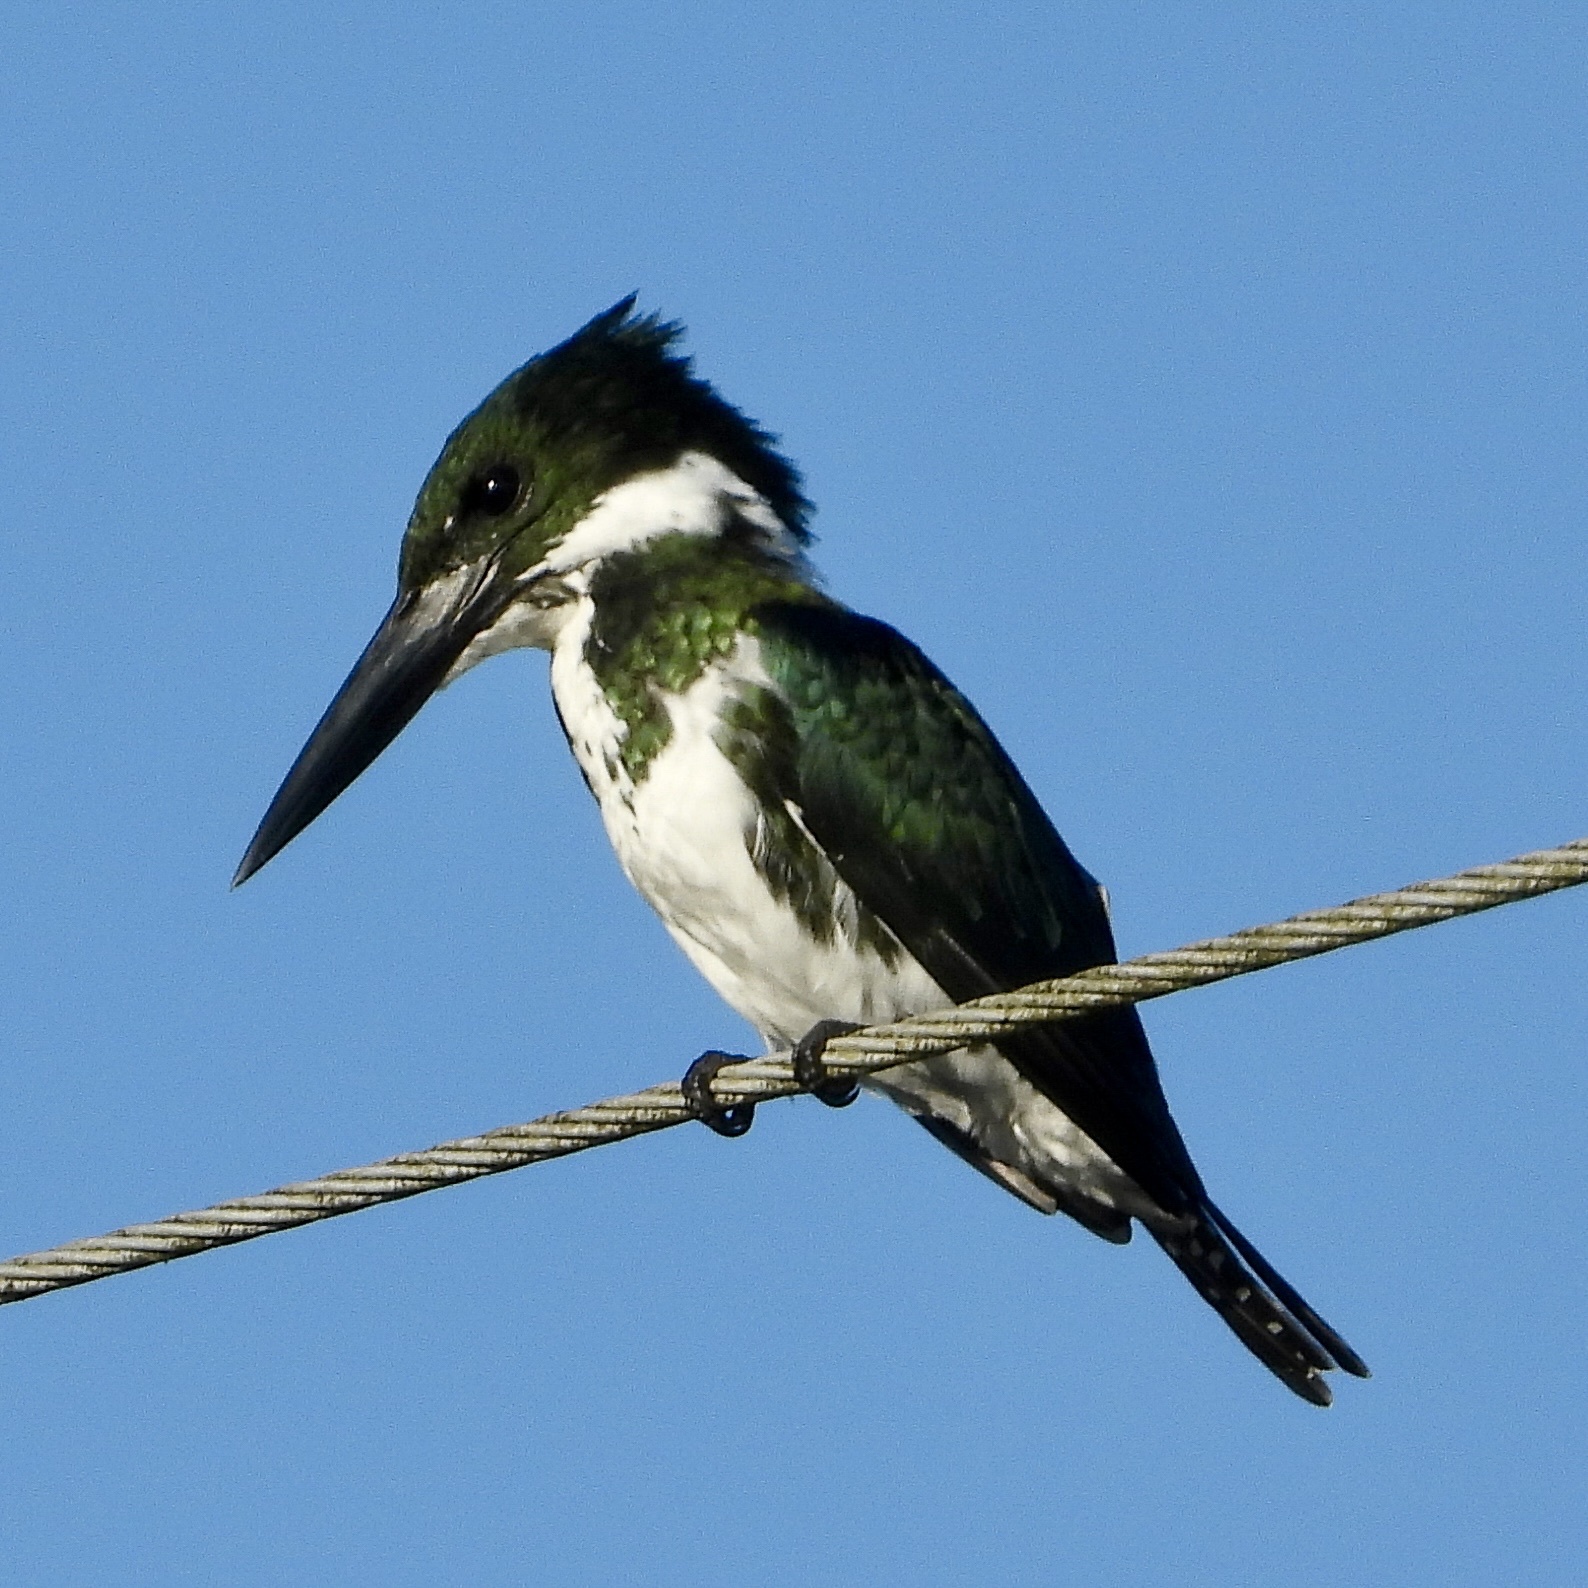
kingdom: Animalia
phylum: Chordata
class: Aves
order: Coraciiformes
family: Alcedinidae
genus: Chloroceryle
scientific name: Chloroceryle amazona
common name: Amazon kingfisher
